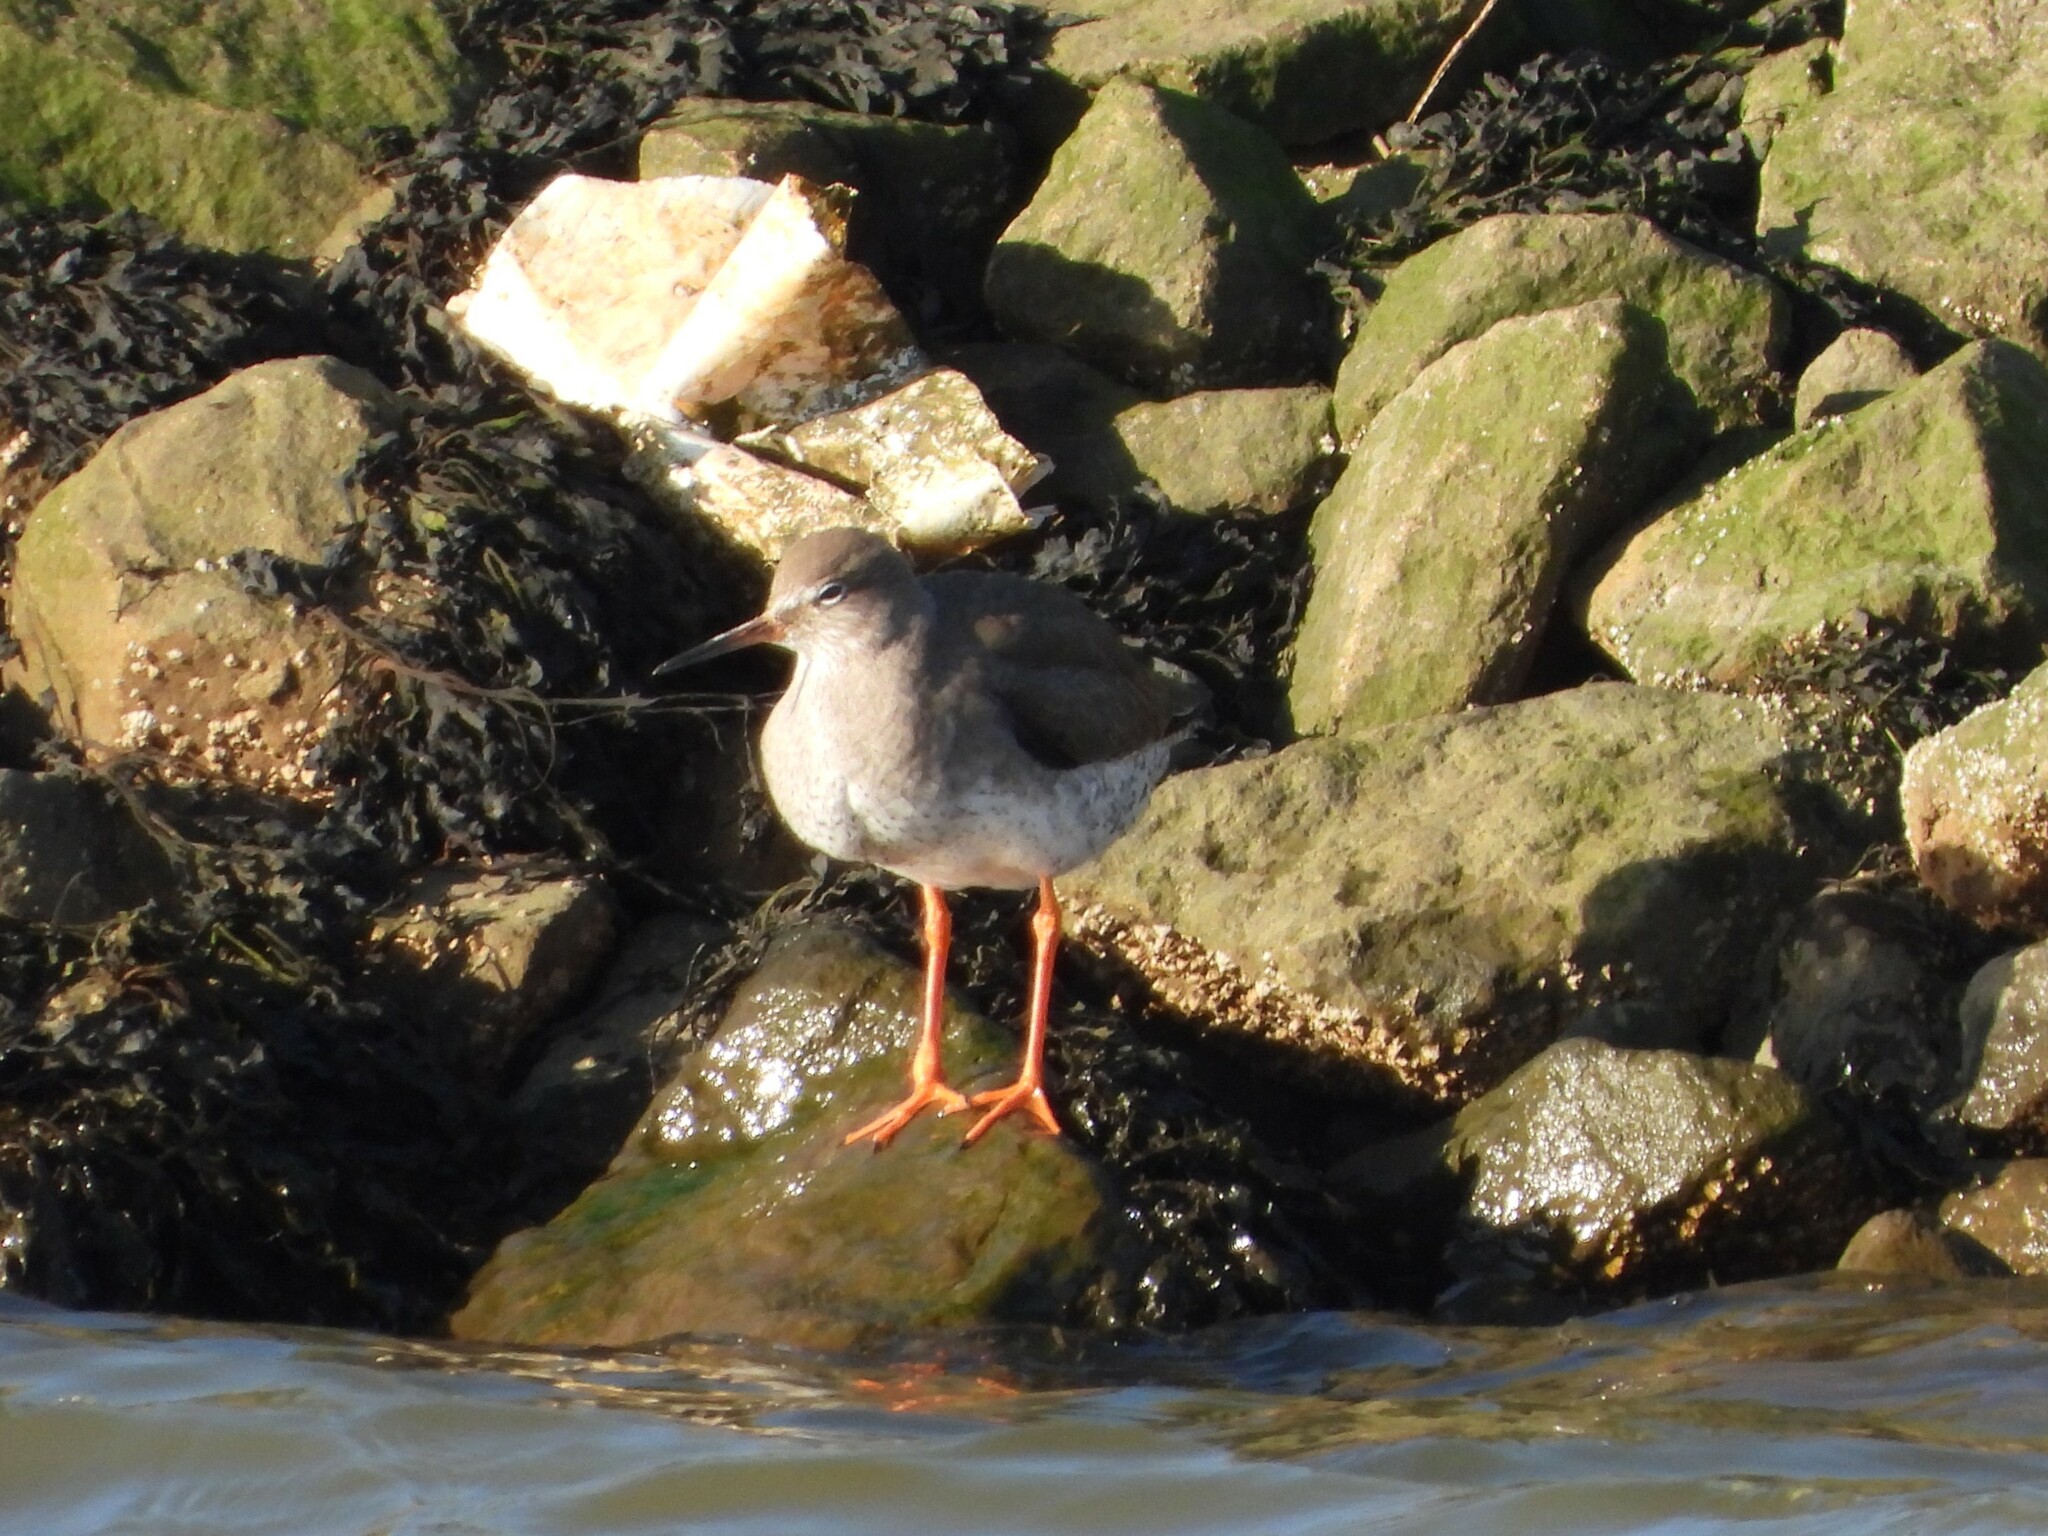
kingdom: Animalia
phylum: Chordata
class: Aves
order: Charadriiformes
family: Scolopacidae
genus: Tringa
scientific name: Tringa totanus
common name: Common redshank
